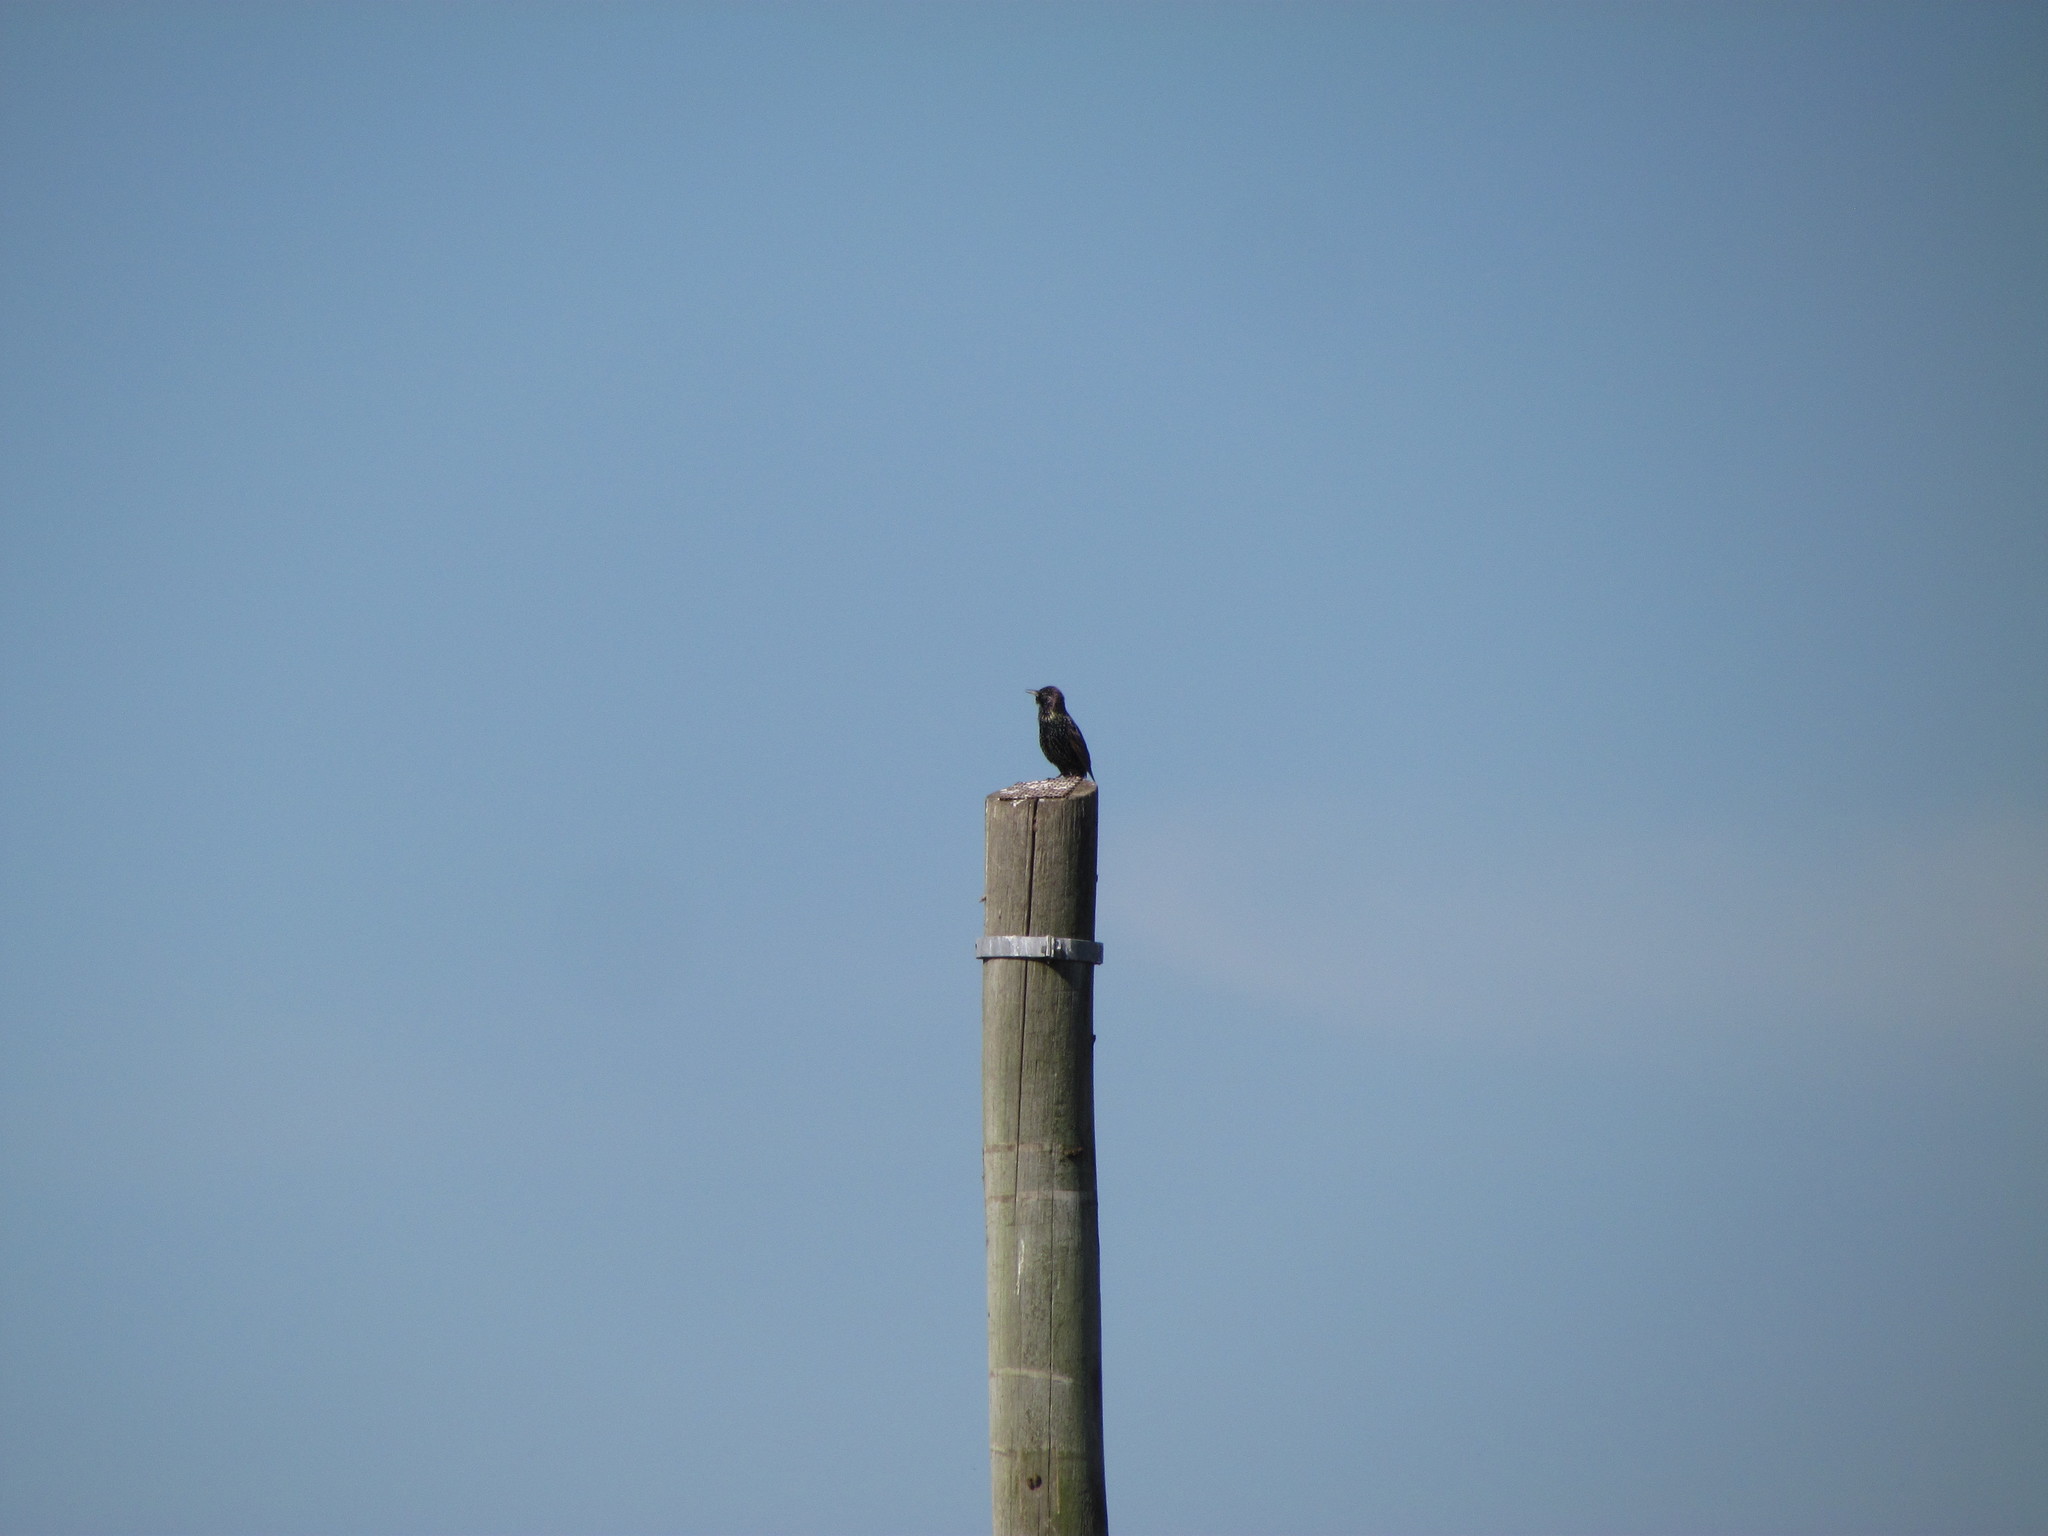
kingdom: Animalia
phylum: Chordata
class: Aves
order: Passeriformes
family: Sturnidae
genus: Sturnus
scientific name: Sturnus vulgaris
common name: Common starling
